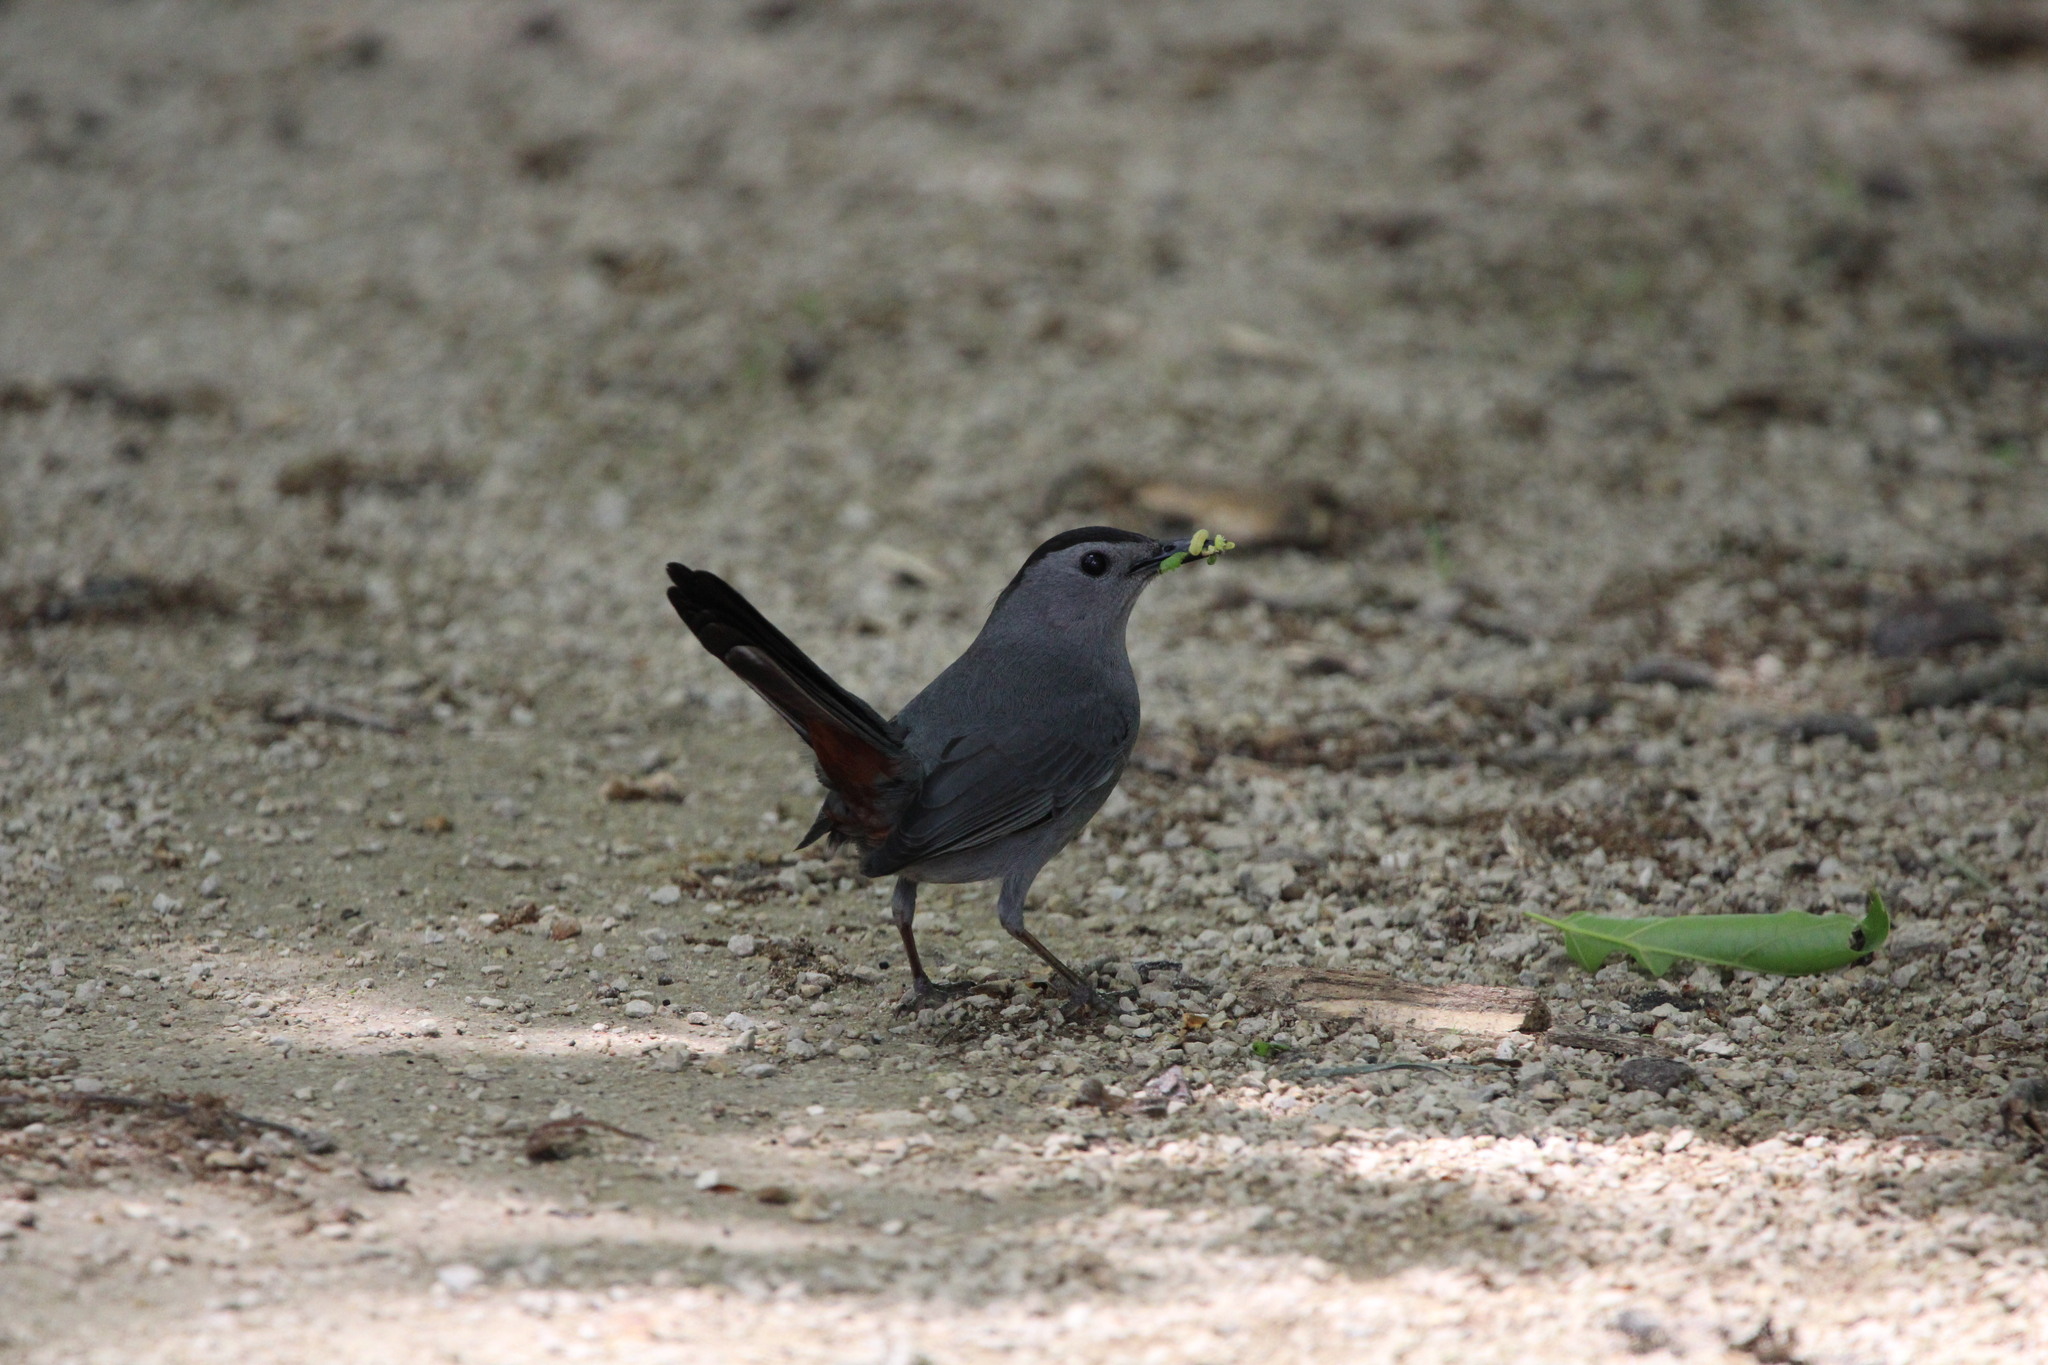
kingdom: Animalia
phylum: Chordata
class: Aves
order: Passeriformes
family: Mimidae
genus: Dumetella
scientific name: Dumetella carolinensis
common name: Gray catbird
